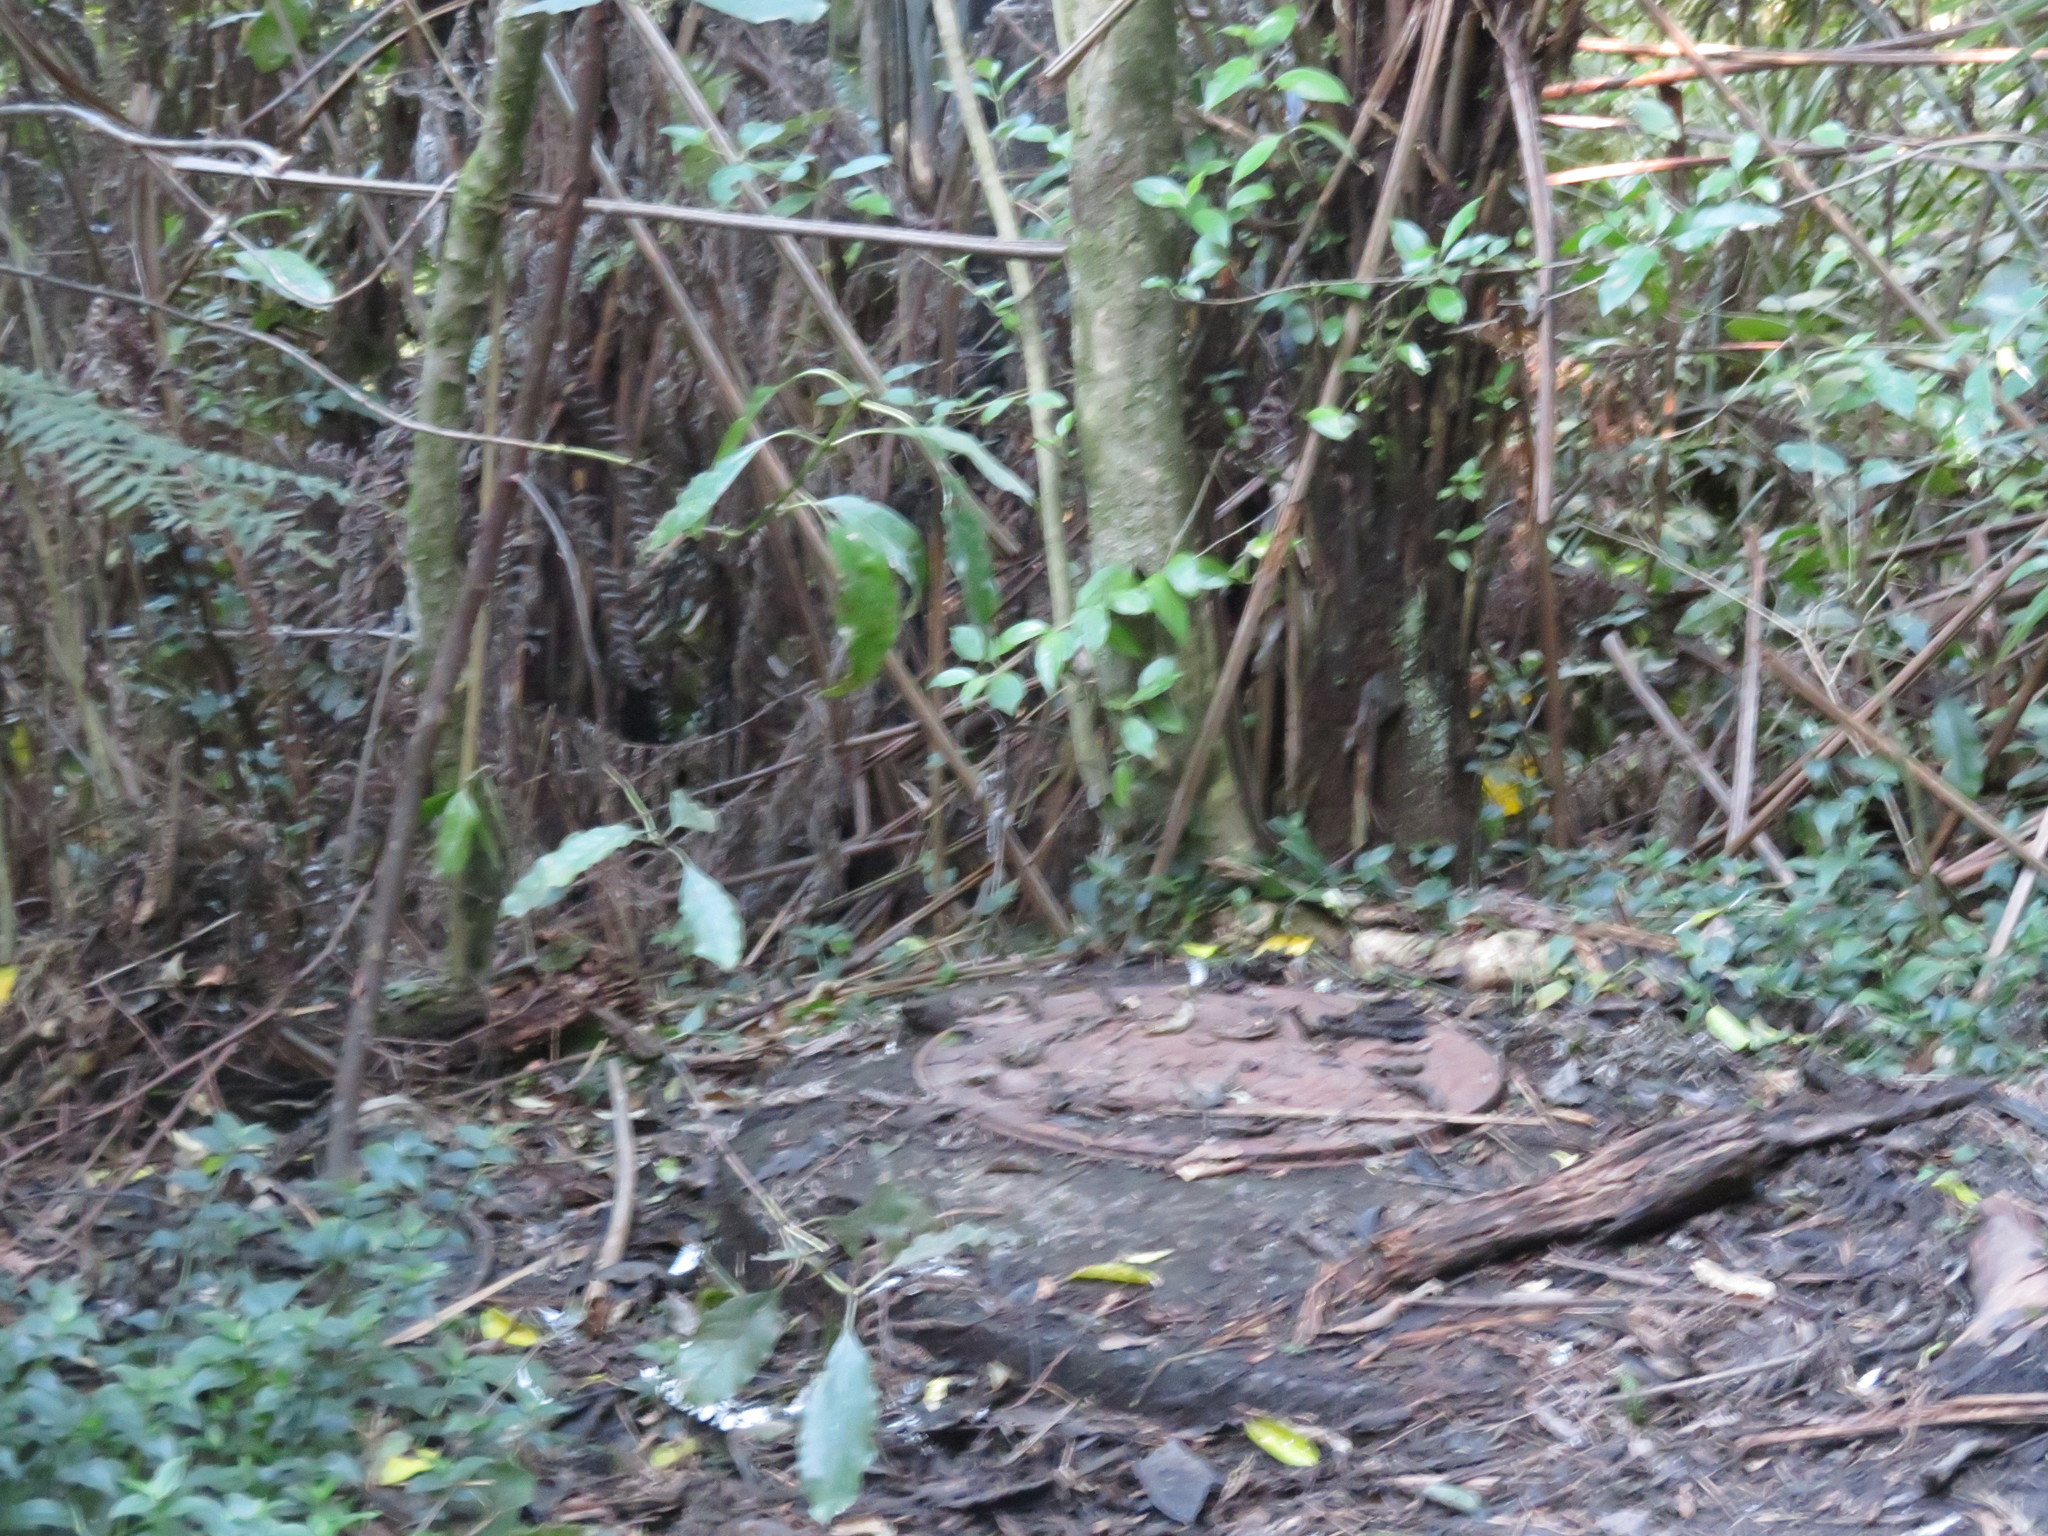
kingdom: Plantae
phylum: Tracheophyta
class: Magnoliopsida
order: Gentianales
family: Loganiaceae
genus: Geniostoma
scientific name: Geniostoma ligustrifolium
